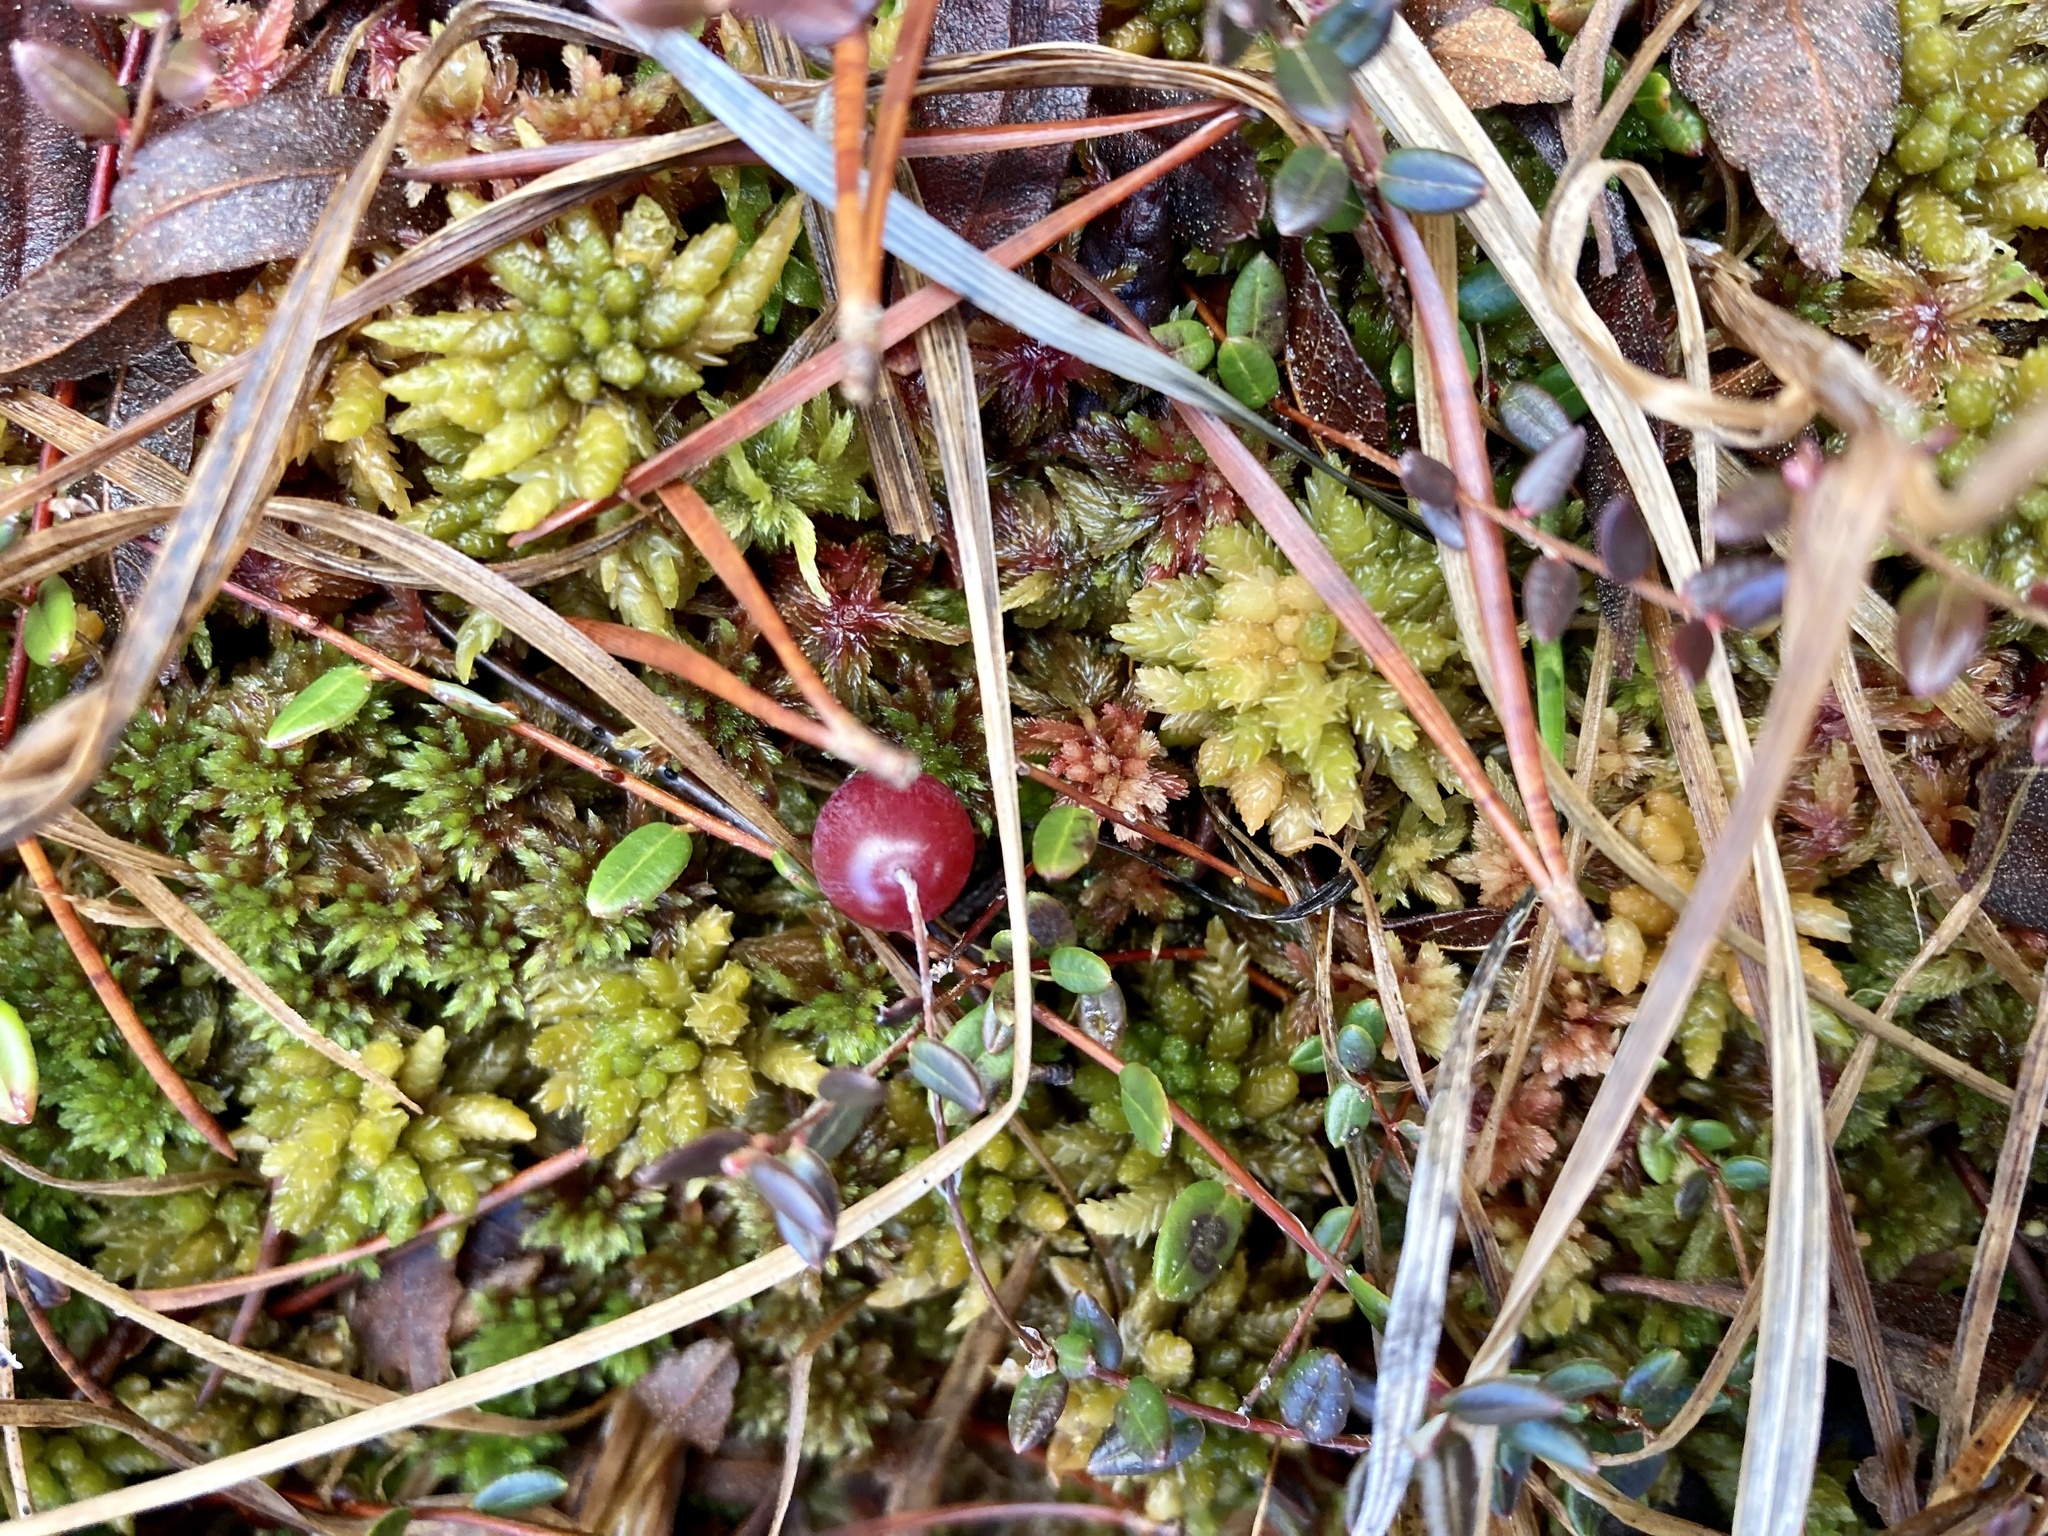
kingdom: Plantae
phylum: Tracheophyta
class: Magnoliopsida
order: Ericales
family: Ericaceae
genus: Vaccinium
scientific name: Vaccinium oxycoccos
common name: Cranberry
